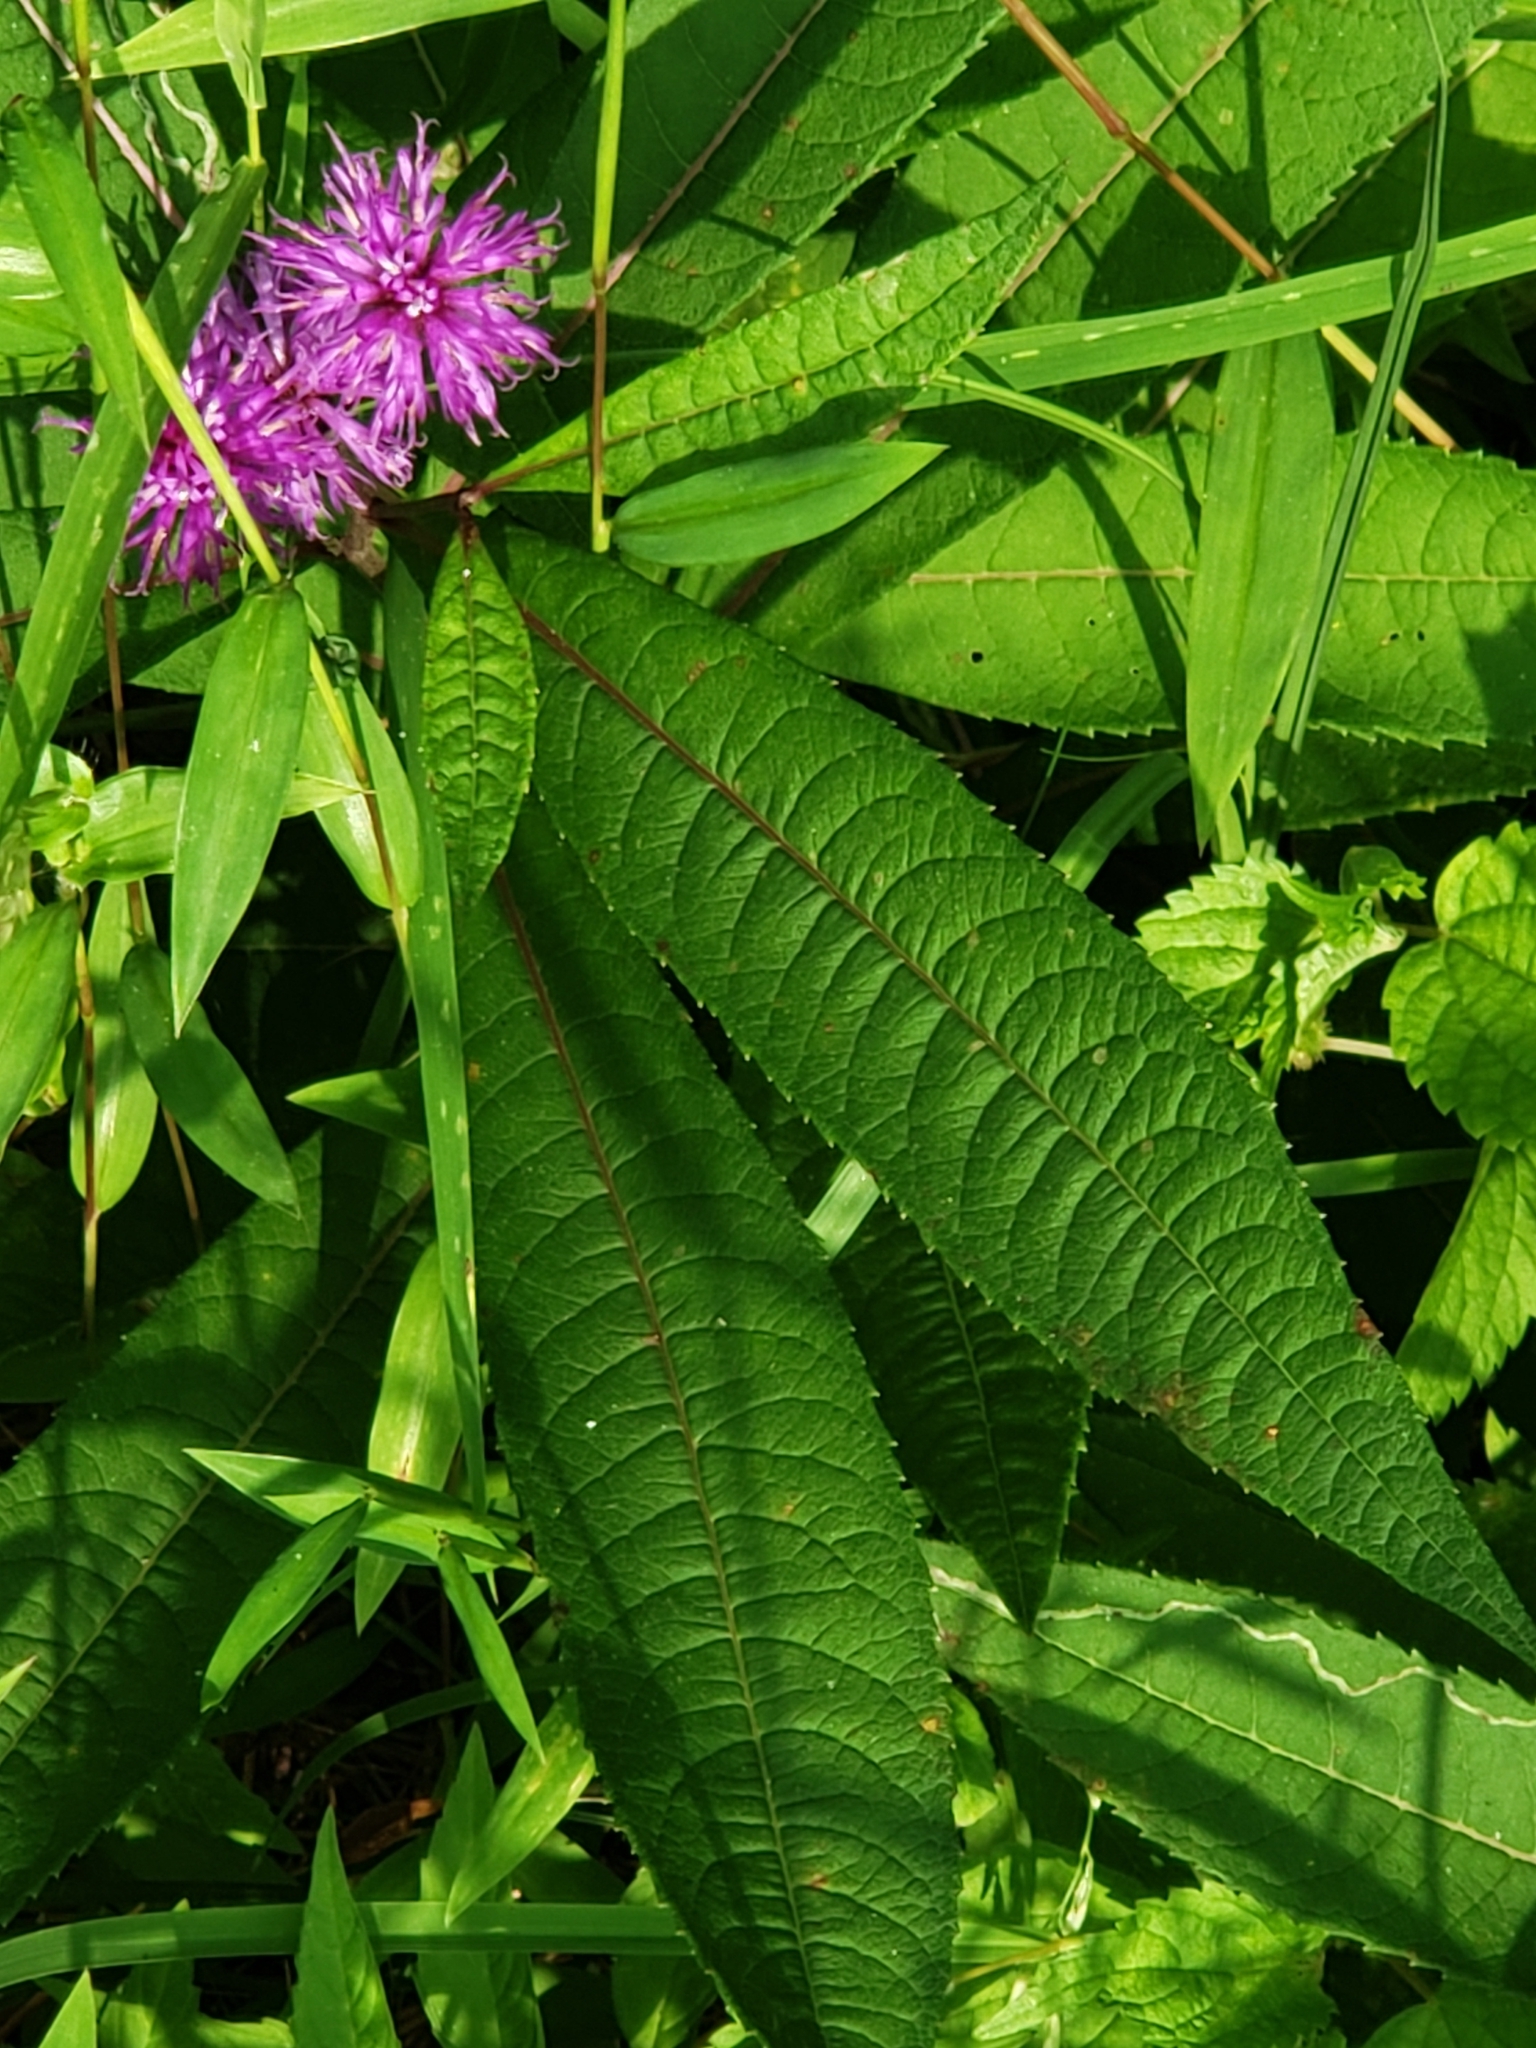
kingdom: Plantae
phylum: Tracheophyta
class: Magnoliopsida
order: Asterales
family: Asteraceae
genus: Vernonia
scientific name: Vernonia noveboracensis
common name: New york ironweed
